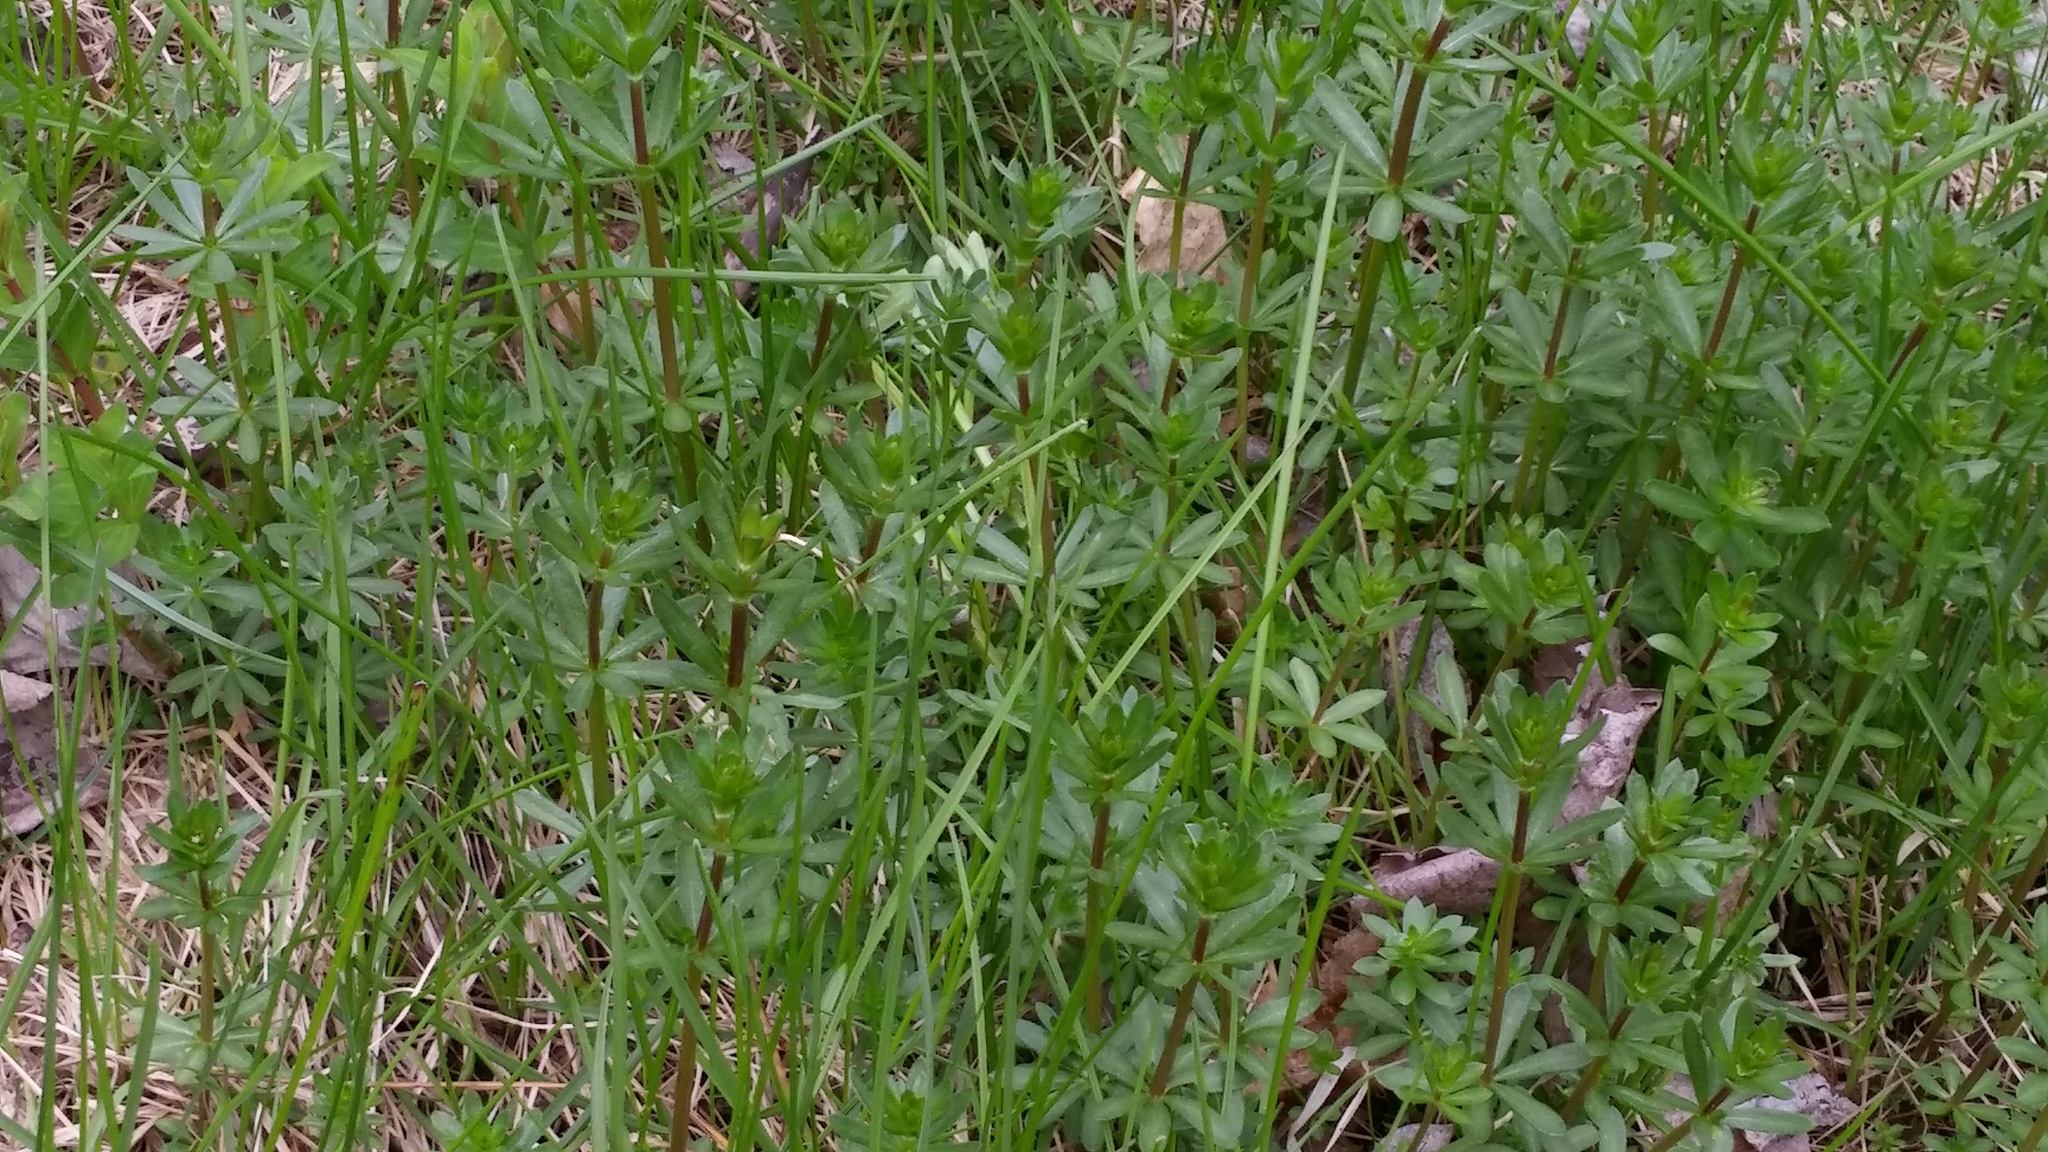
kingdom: Plantae
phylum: Tracheophyta
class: Magnoliopsida
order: Gentianales
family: Rubiaceae
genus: Galium
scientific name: Galium mollugo
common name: Hedge bedstraw
